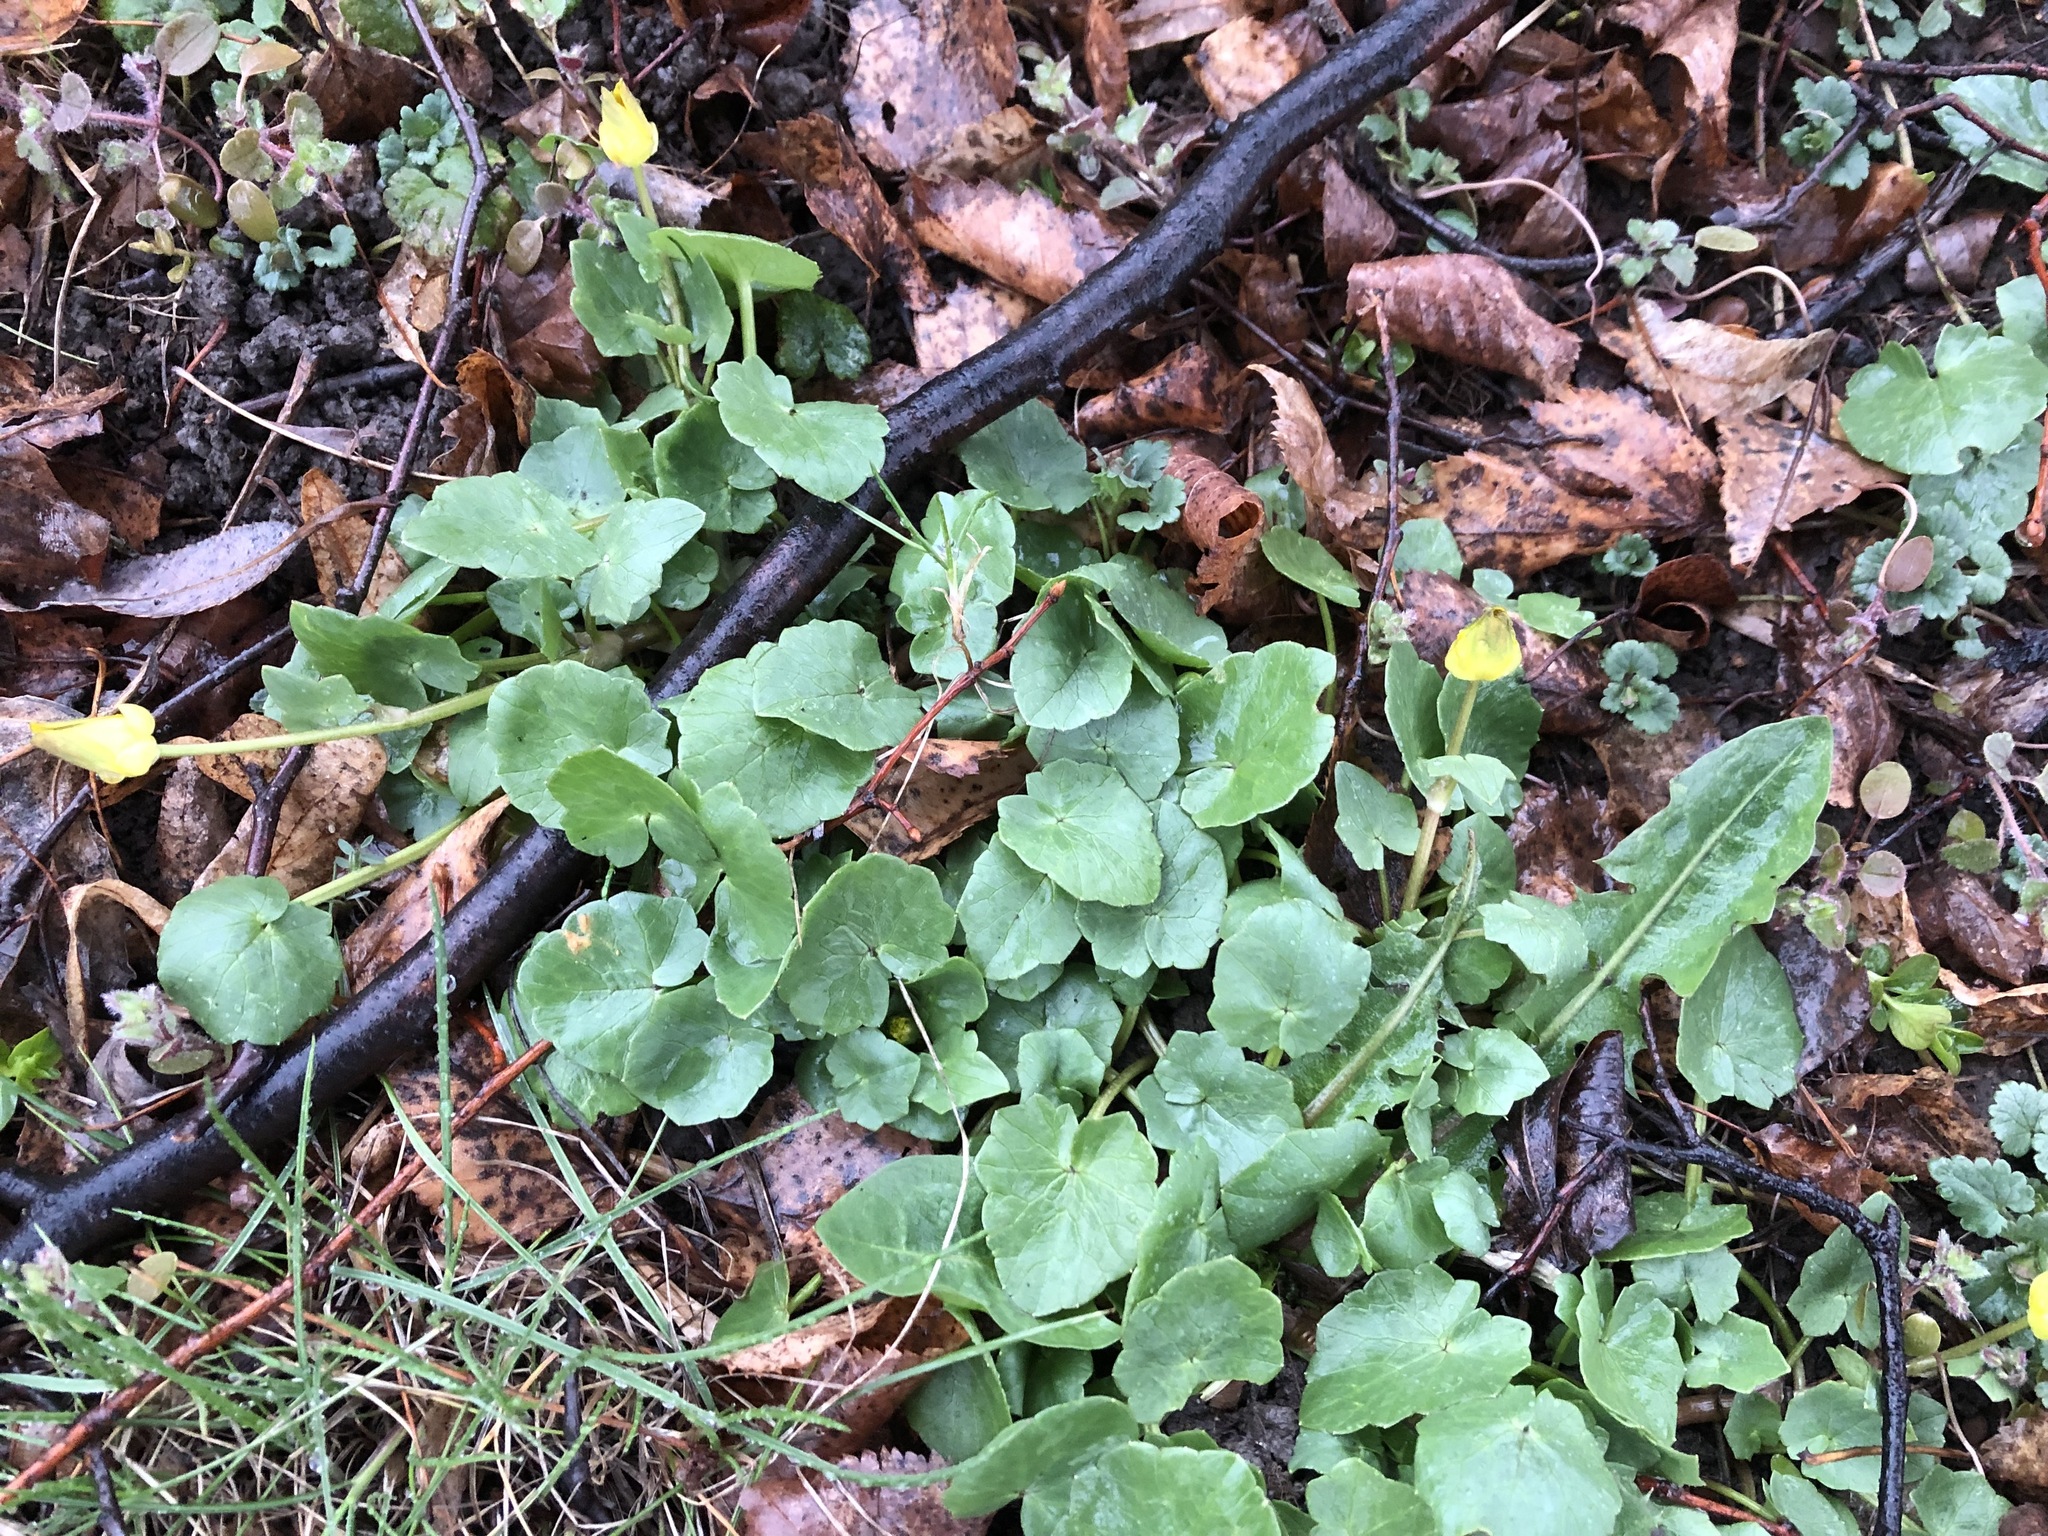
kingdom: Plantae
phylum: Tracheophyta
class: Magnoliopsida
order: Ranunculales
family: Ranunculaceae
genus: Ficaria
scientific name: Ficaria verna
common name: Lesser celandine
